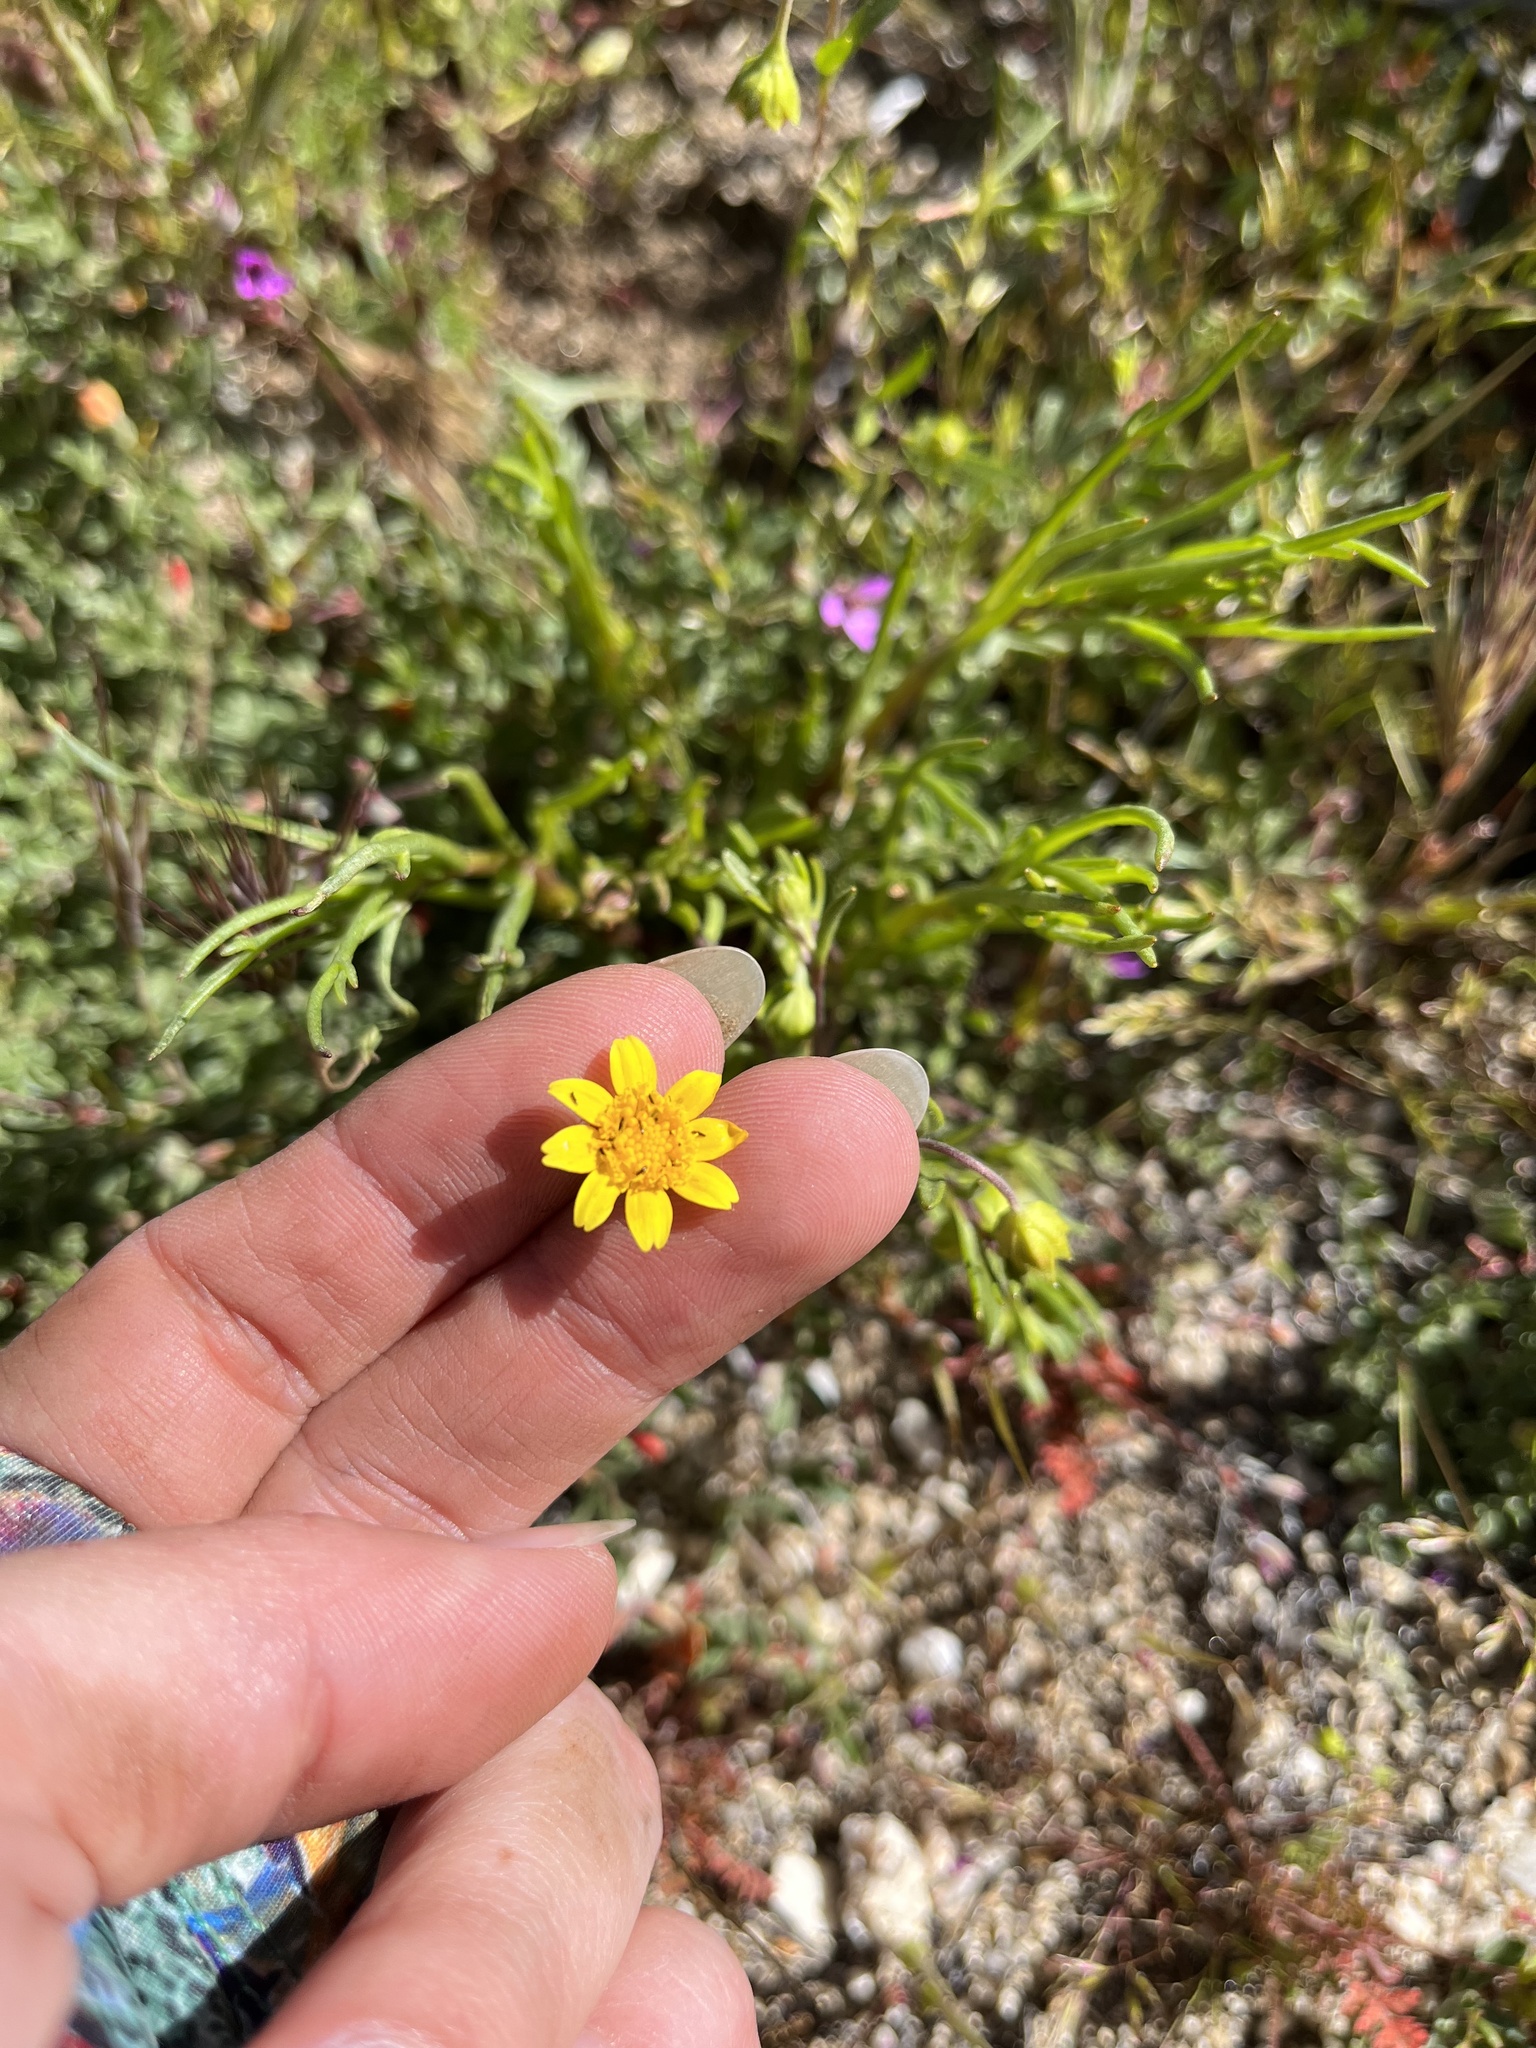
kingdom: Plantae
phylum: Tracheophyta
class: Magnoliopsida
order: Asterales
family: Asteraceae
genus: Lasthenia
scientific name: Lasthenia gracilis
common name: Common goldfields
